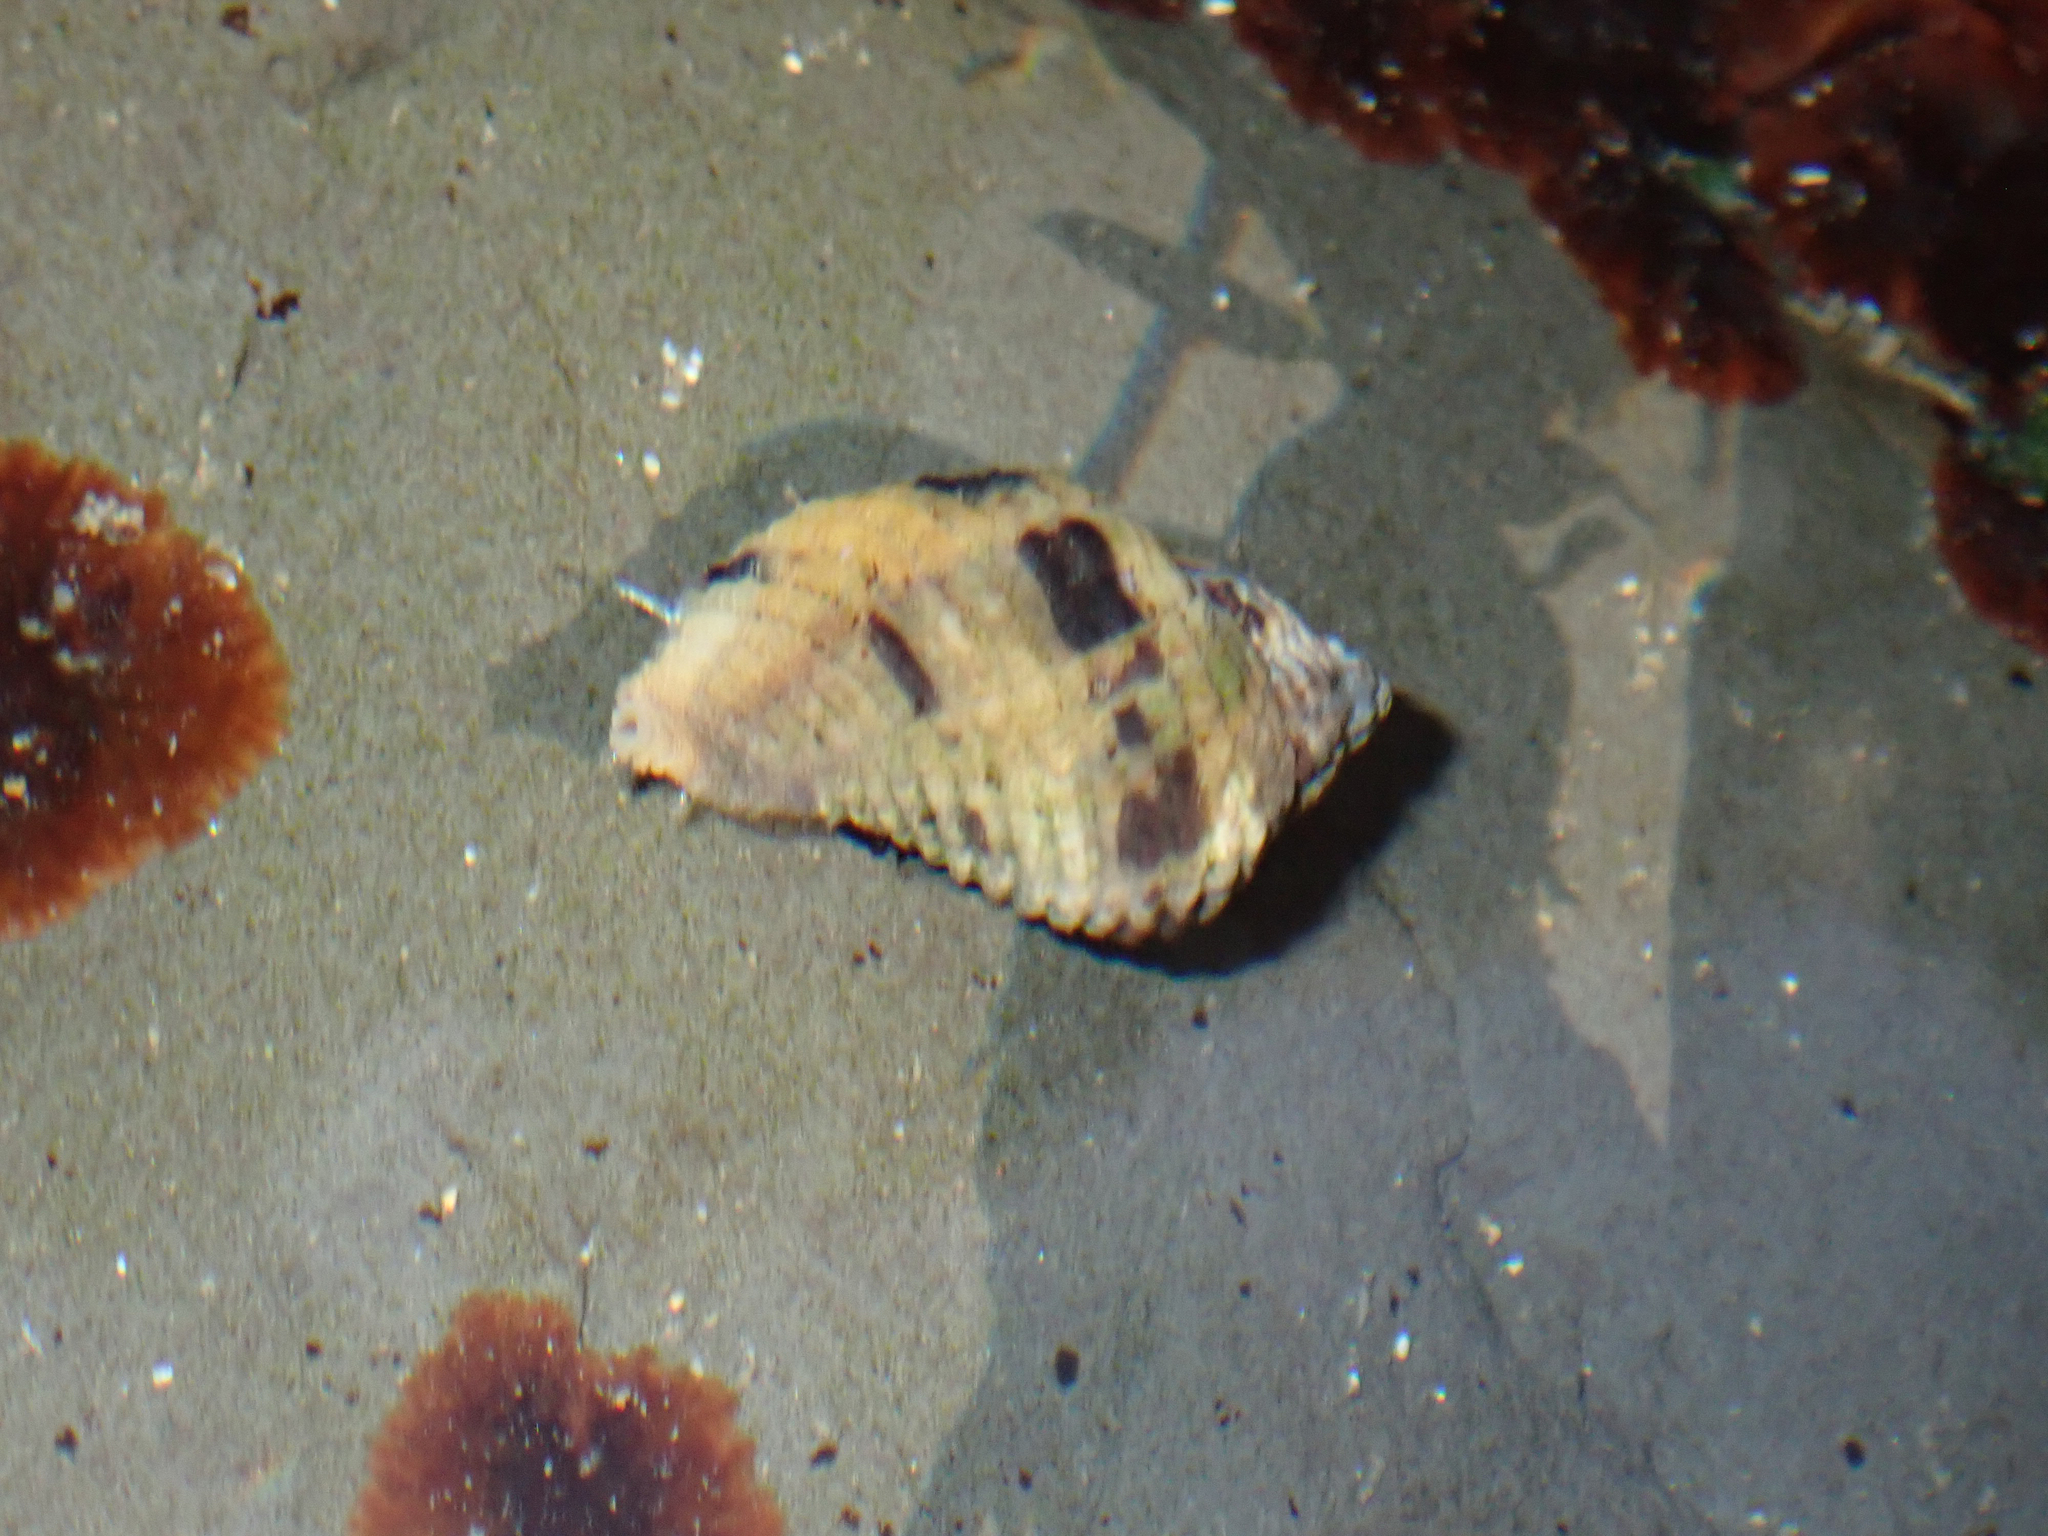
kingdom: Animalia
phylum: Mollusca
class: Gastropoda
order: Neogastropoda
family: Muricidae
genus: Paciocinebrina
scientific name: Paciocinebrina circumtexta
